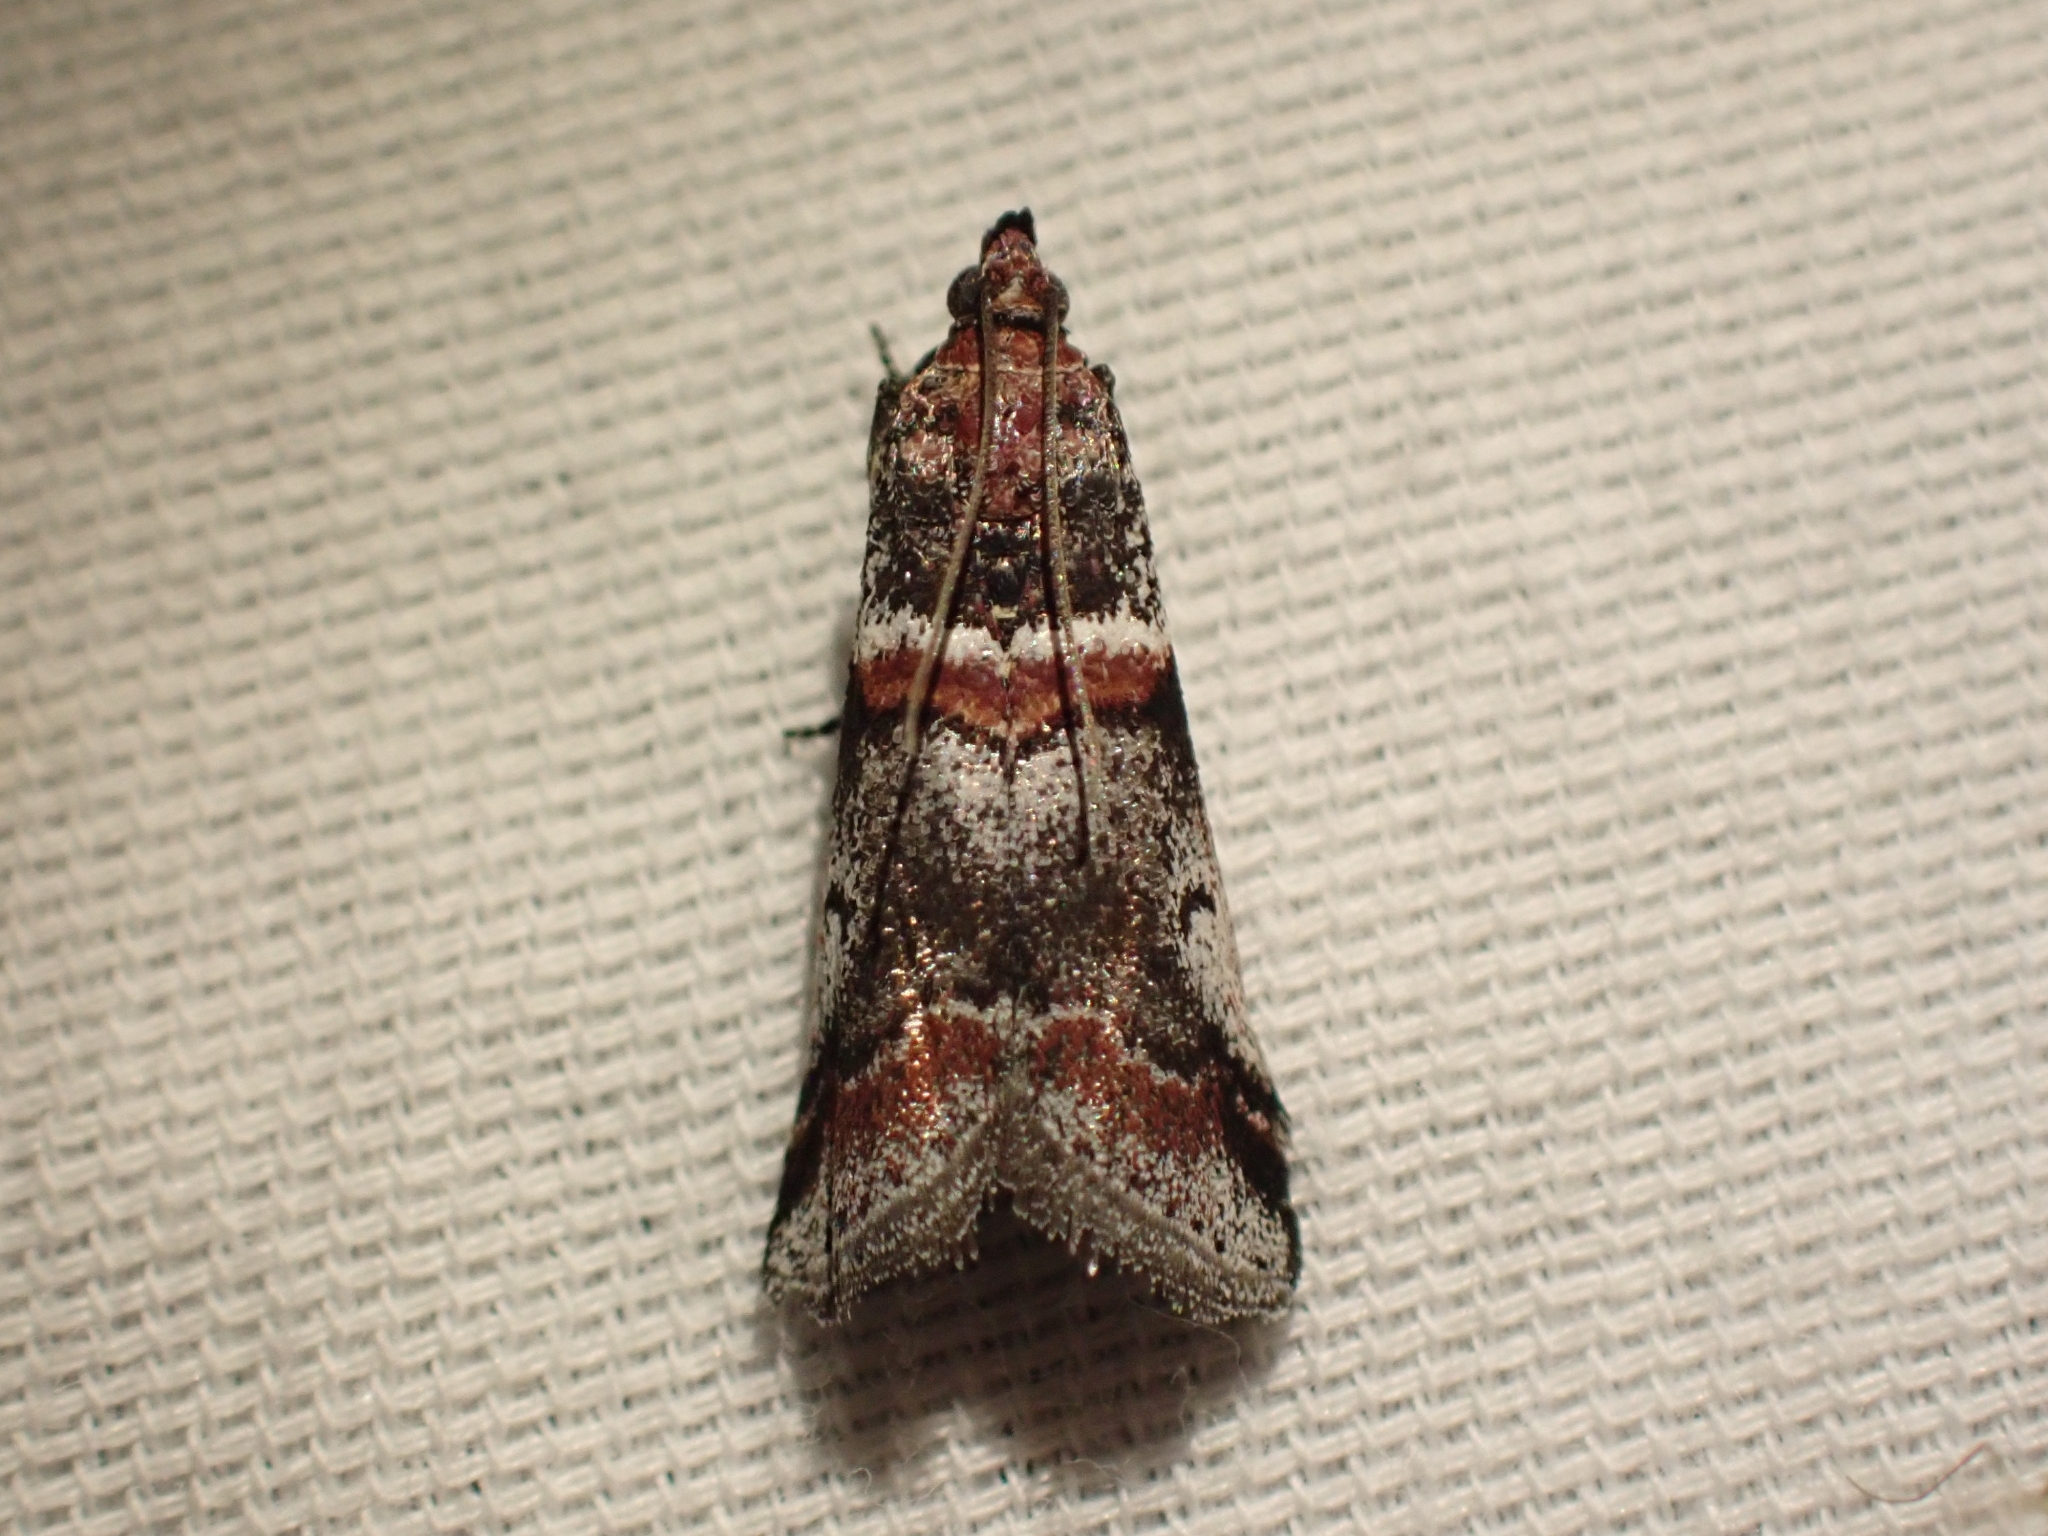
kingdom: Animalia
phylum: Arthropoda
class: Insecta
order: Lepidoptera
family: Pyralidae
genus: Acrobasis
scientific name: Acrobasis tricolorella
